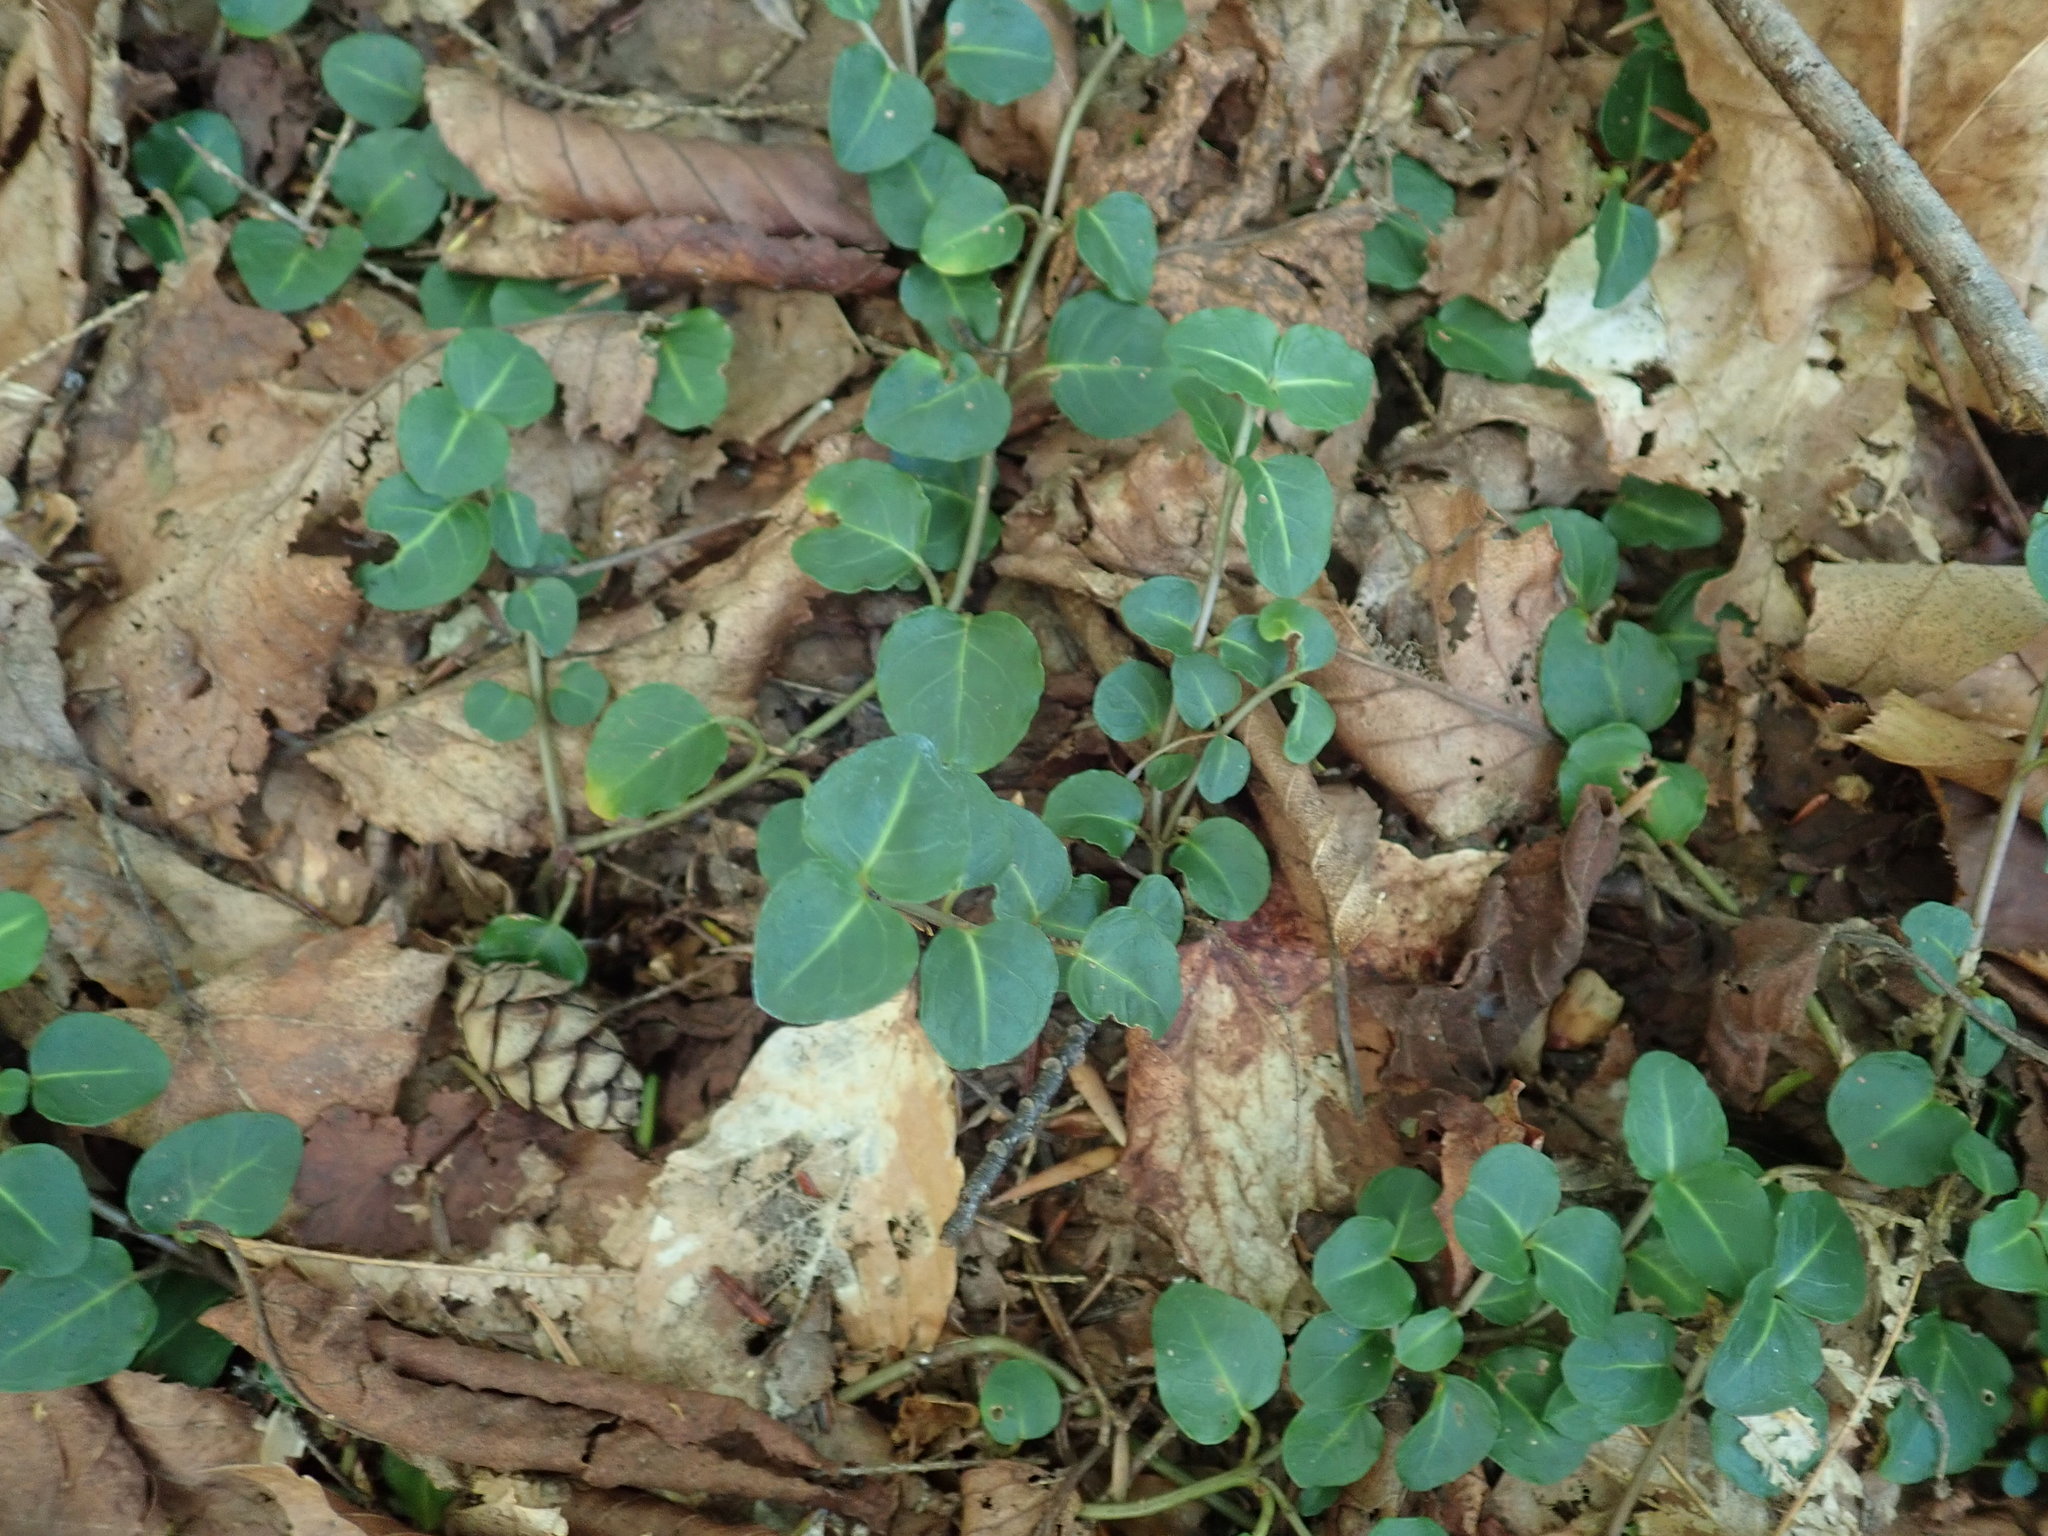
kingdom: Plantae
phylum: Tracheophyta
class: Magnoliopsida
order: Gentianales
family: Rubiaceae
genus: Mitchella
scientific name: Mitchella repens
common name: Partridge-berry
